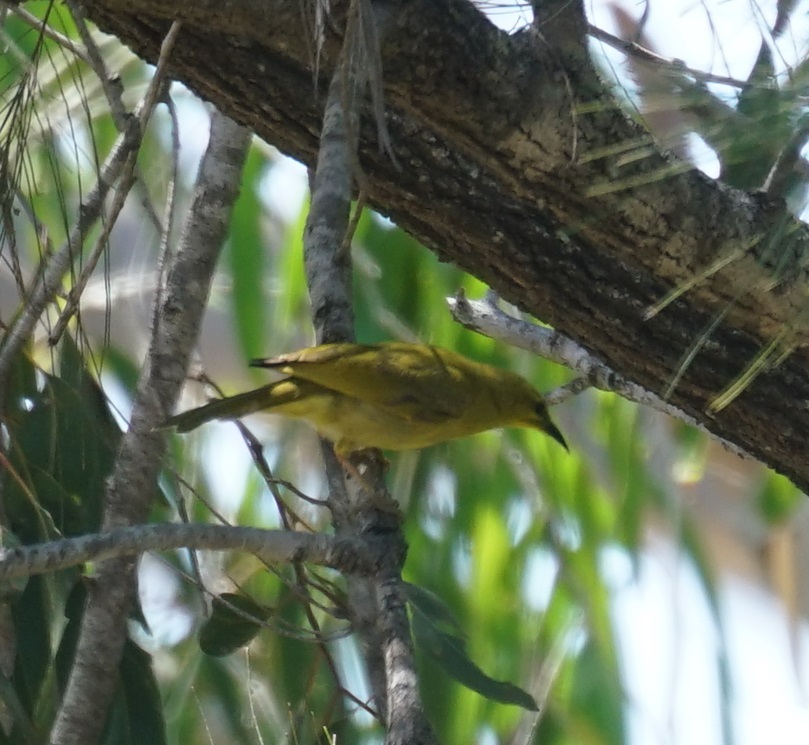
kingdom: Animalia
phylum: Chordata
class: Aves
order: Passeriformes
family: Meliphagidae
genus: Stomiopera
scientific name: Stomiopera flava
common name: Yellow honeyeater
